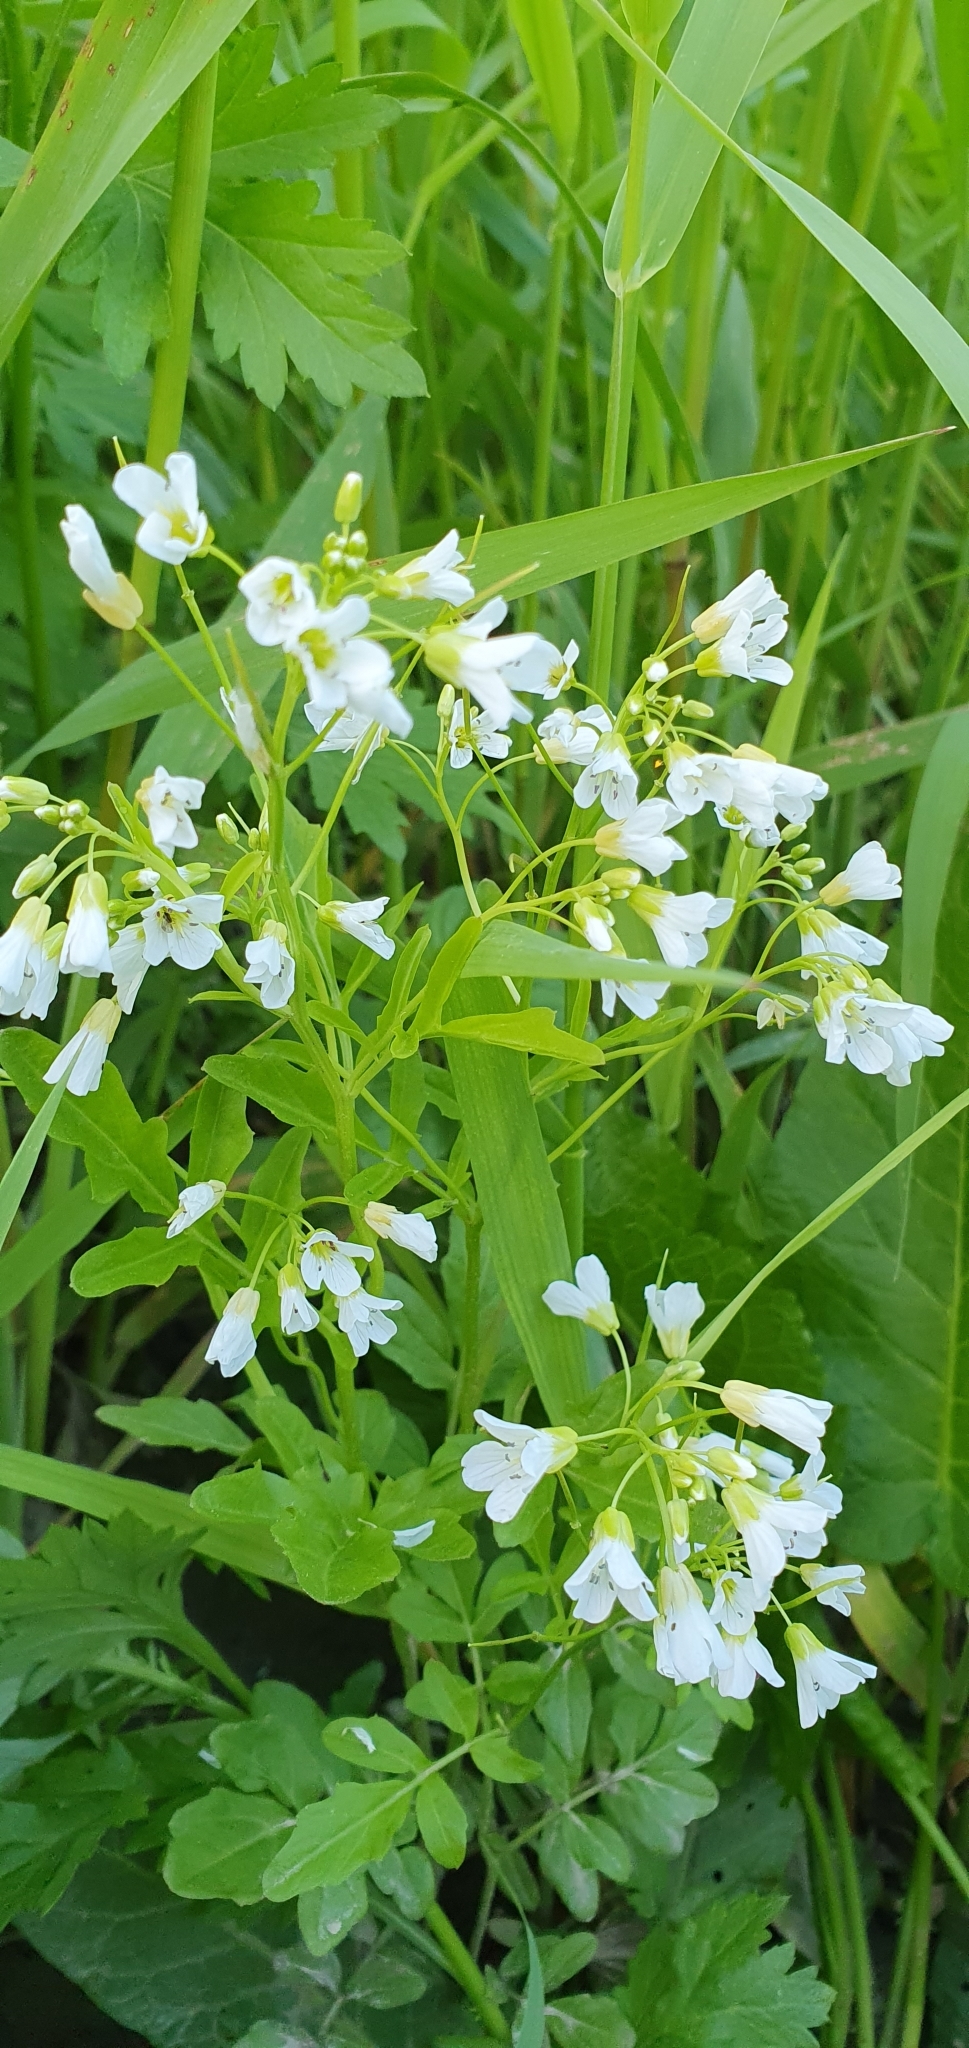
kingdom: Plantae
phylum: Tracheophyta
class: Magnoliopsida
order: Brassicales
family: Brassicaceae
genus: Cardamine
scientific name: Cardamine amara
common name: Large bitter-cress
